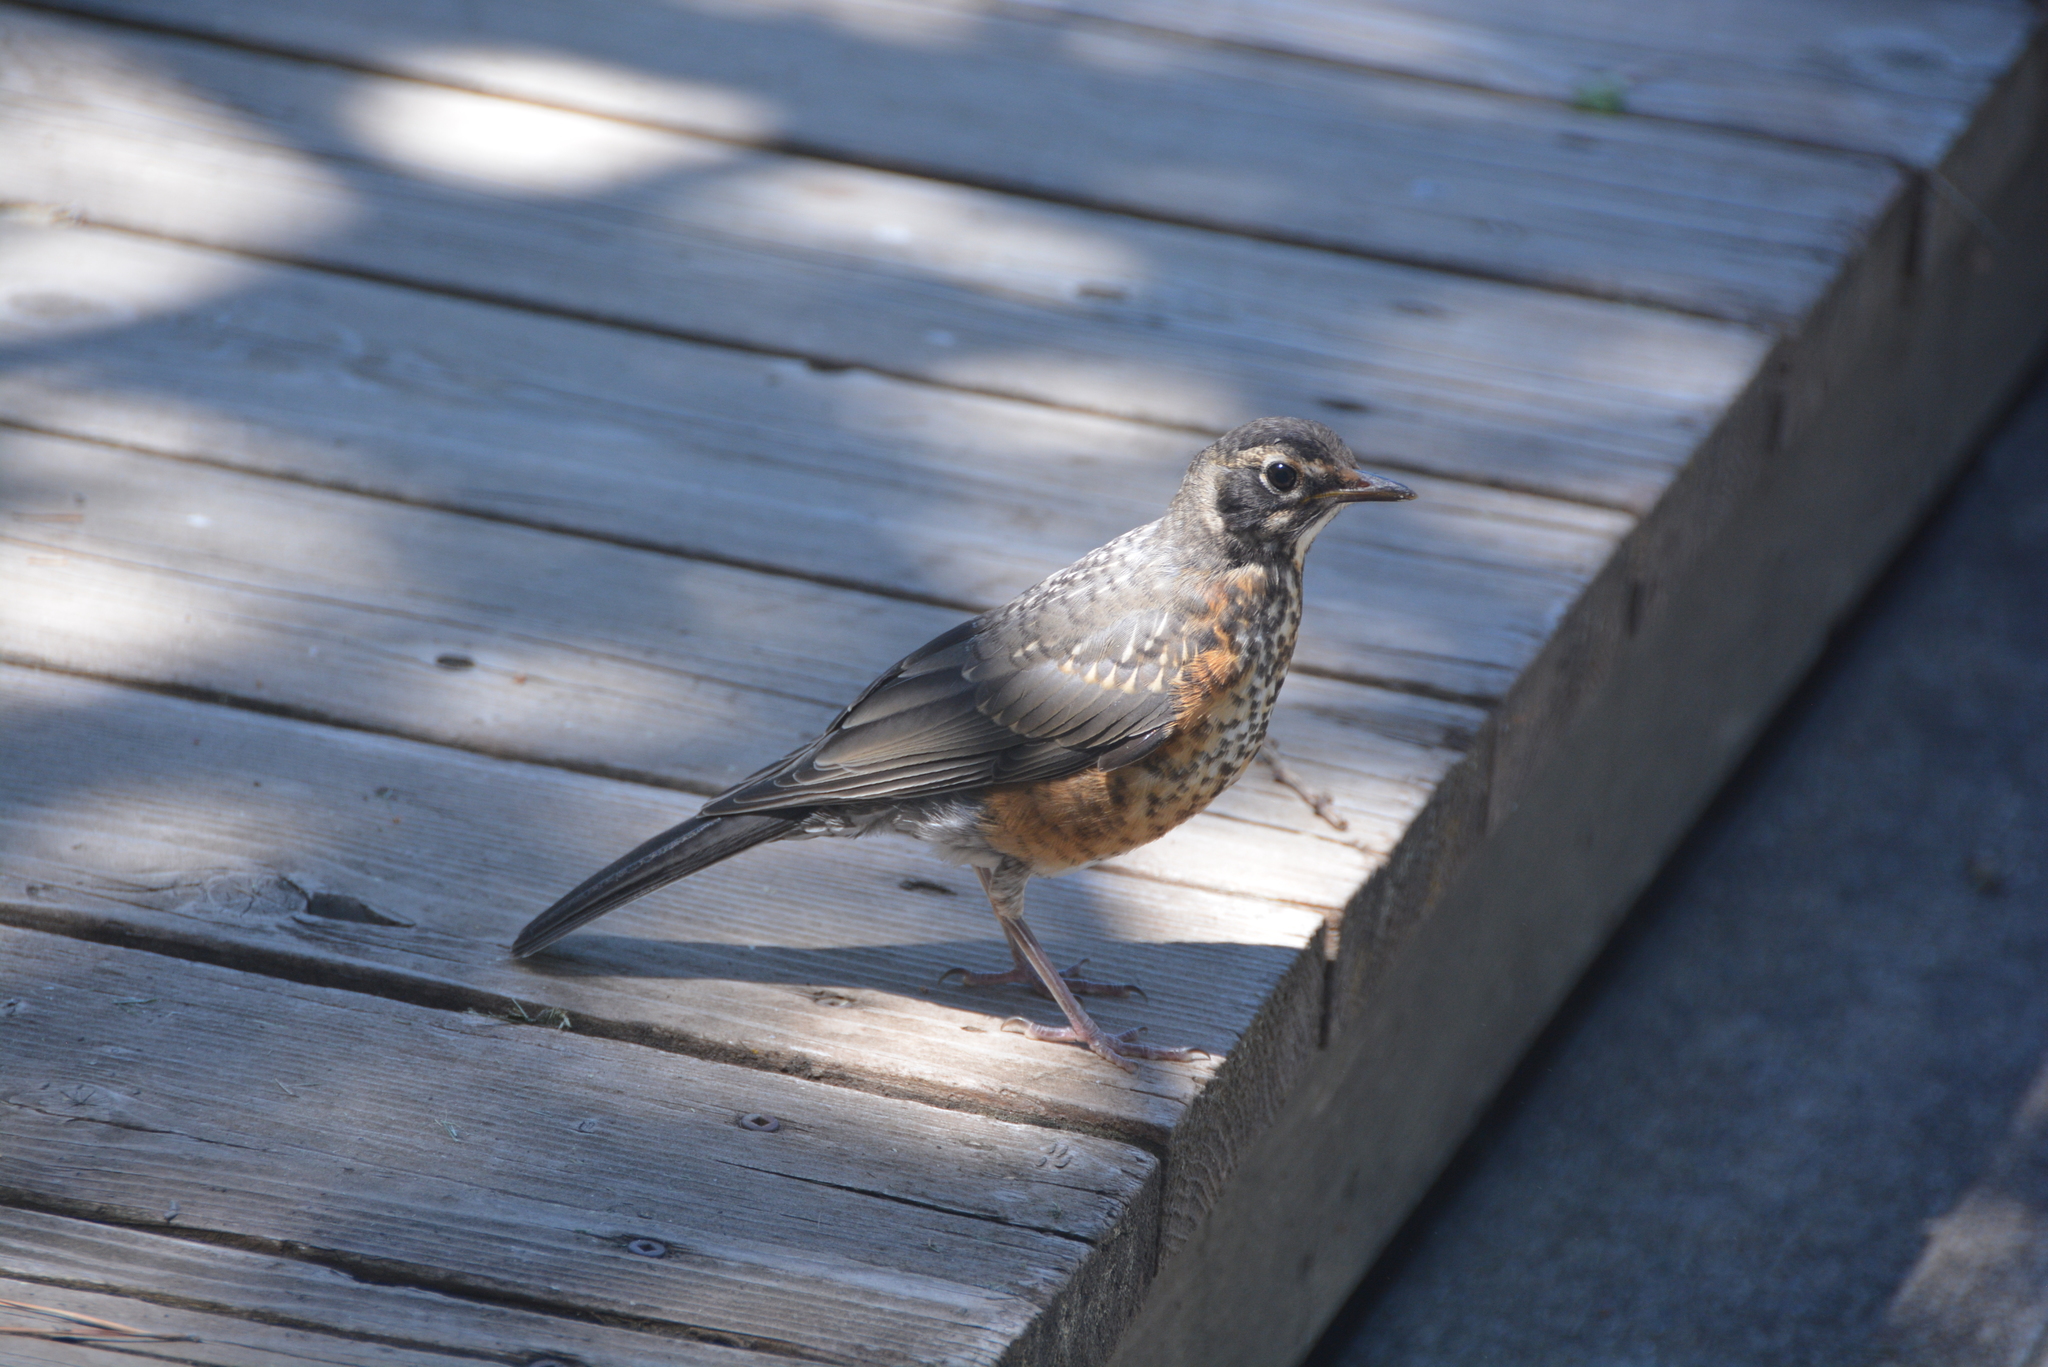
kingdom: Animalia
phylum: Chordata
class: Aves
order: Passeriformes
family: Turdidae
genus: Turdus
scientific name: Turdus migratorius
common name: American robin
